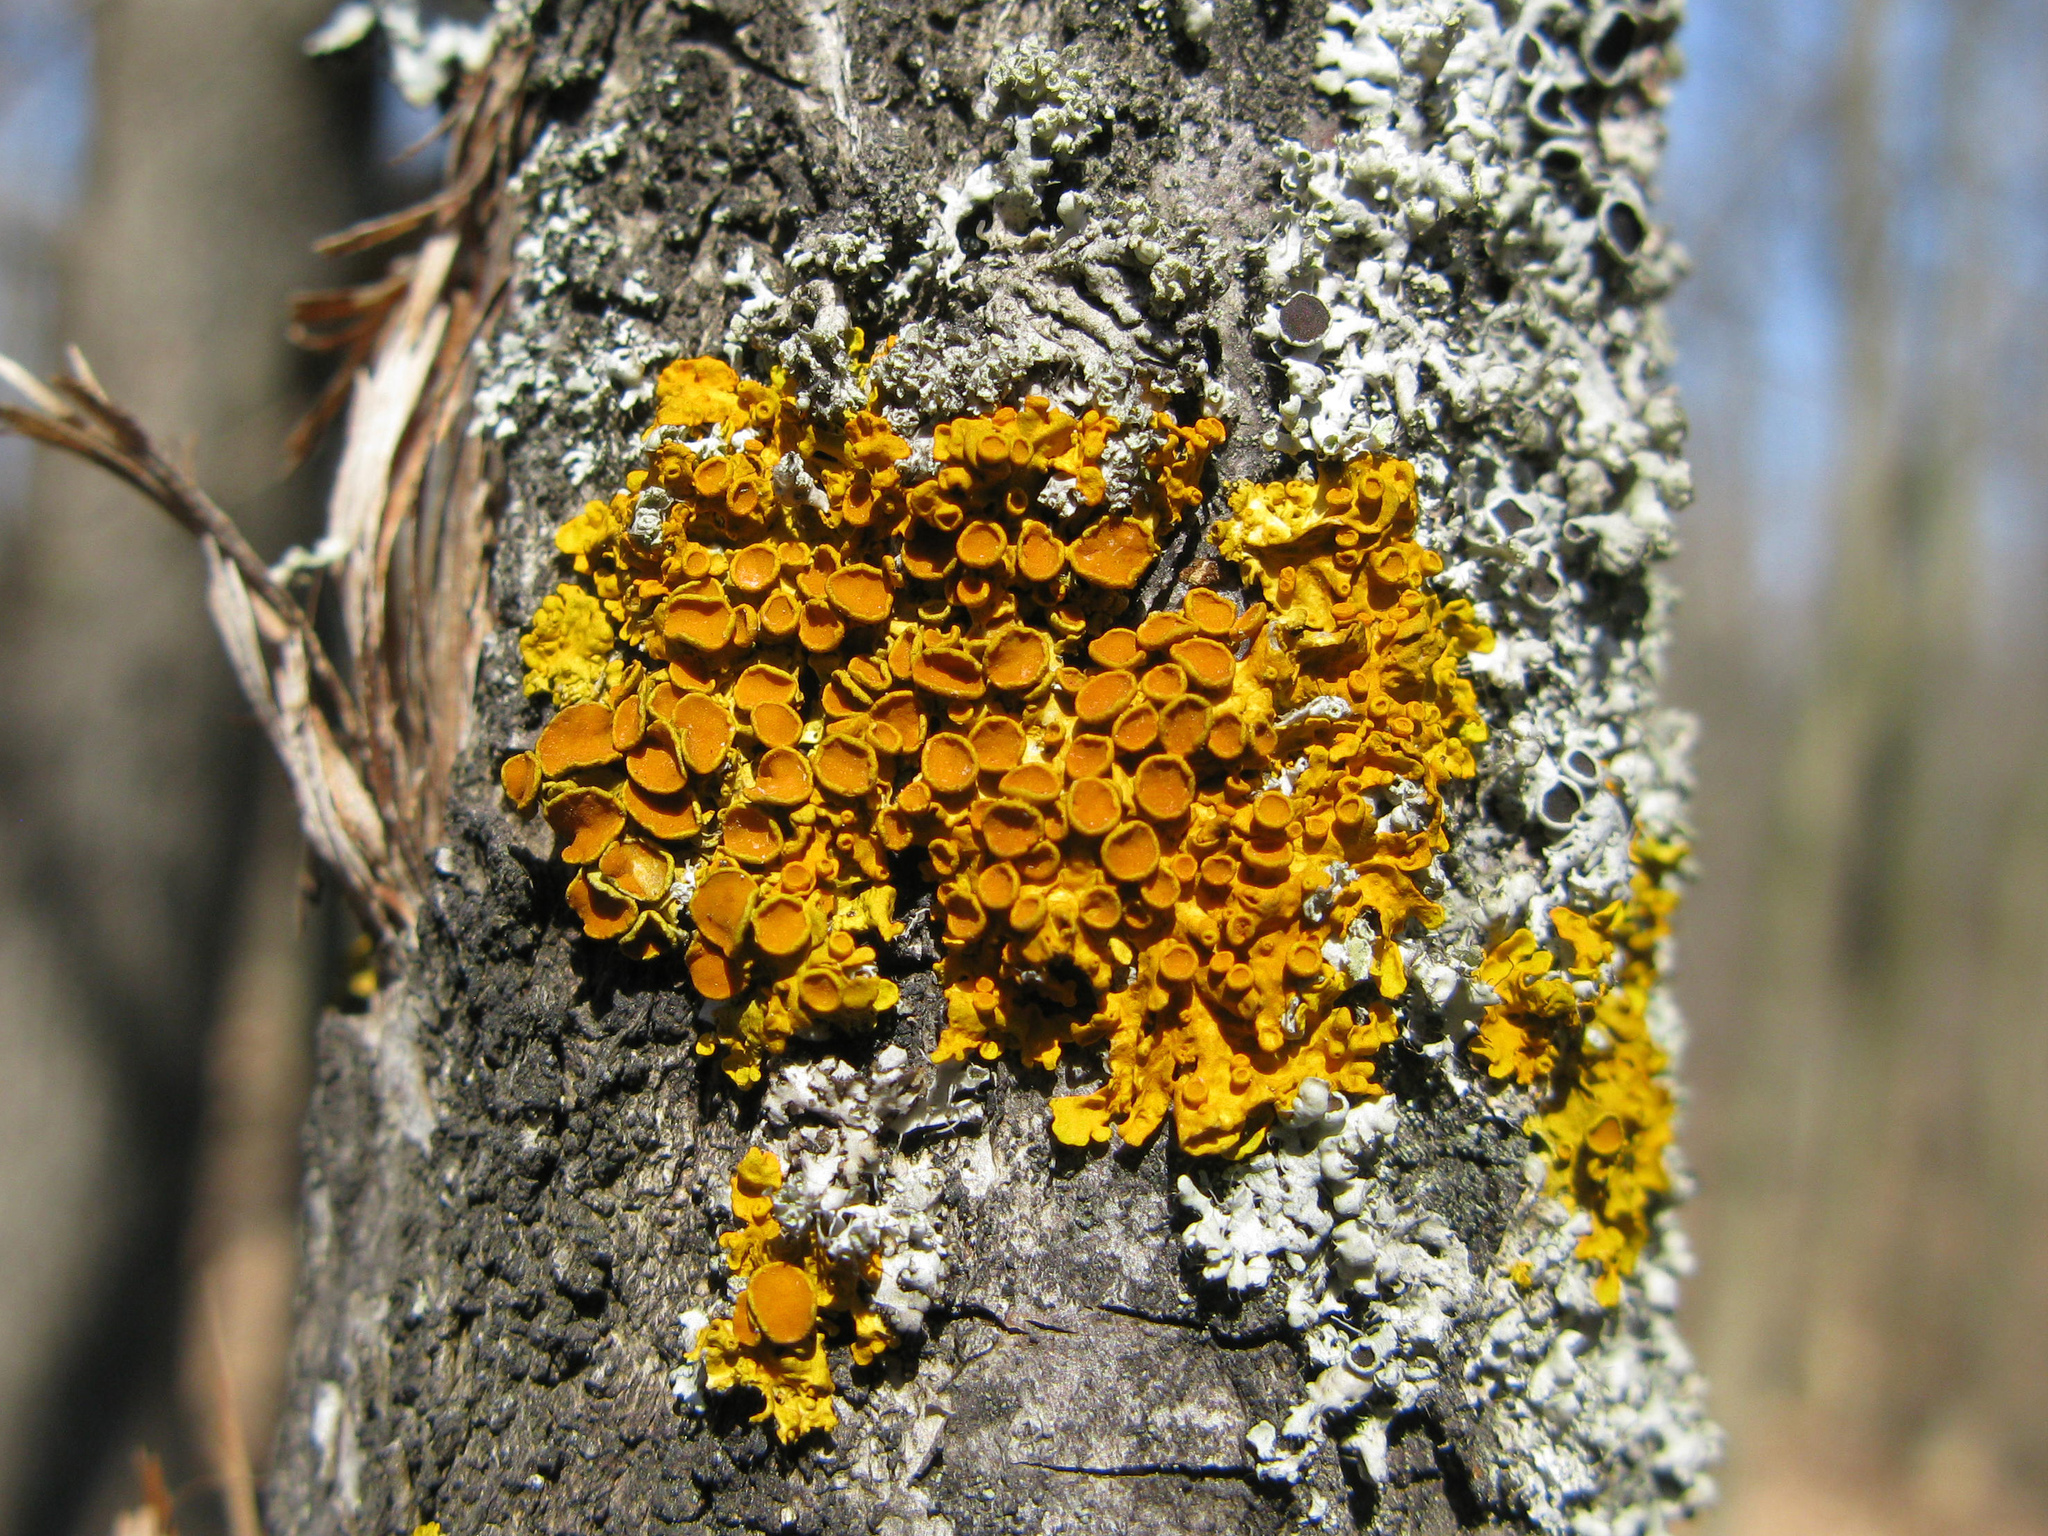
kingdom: Fungi
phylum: Ascomycota
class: Lecanoromycetes
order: Teloschistales
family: Teloschistaceae
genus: Xanthoria
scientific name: Xanthoria parietina
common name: Common orange lichen
